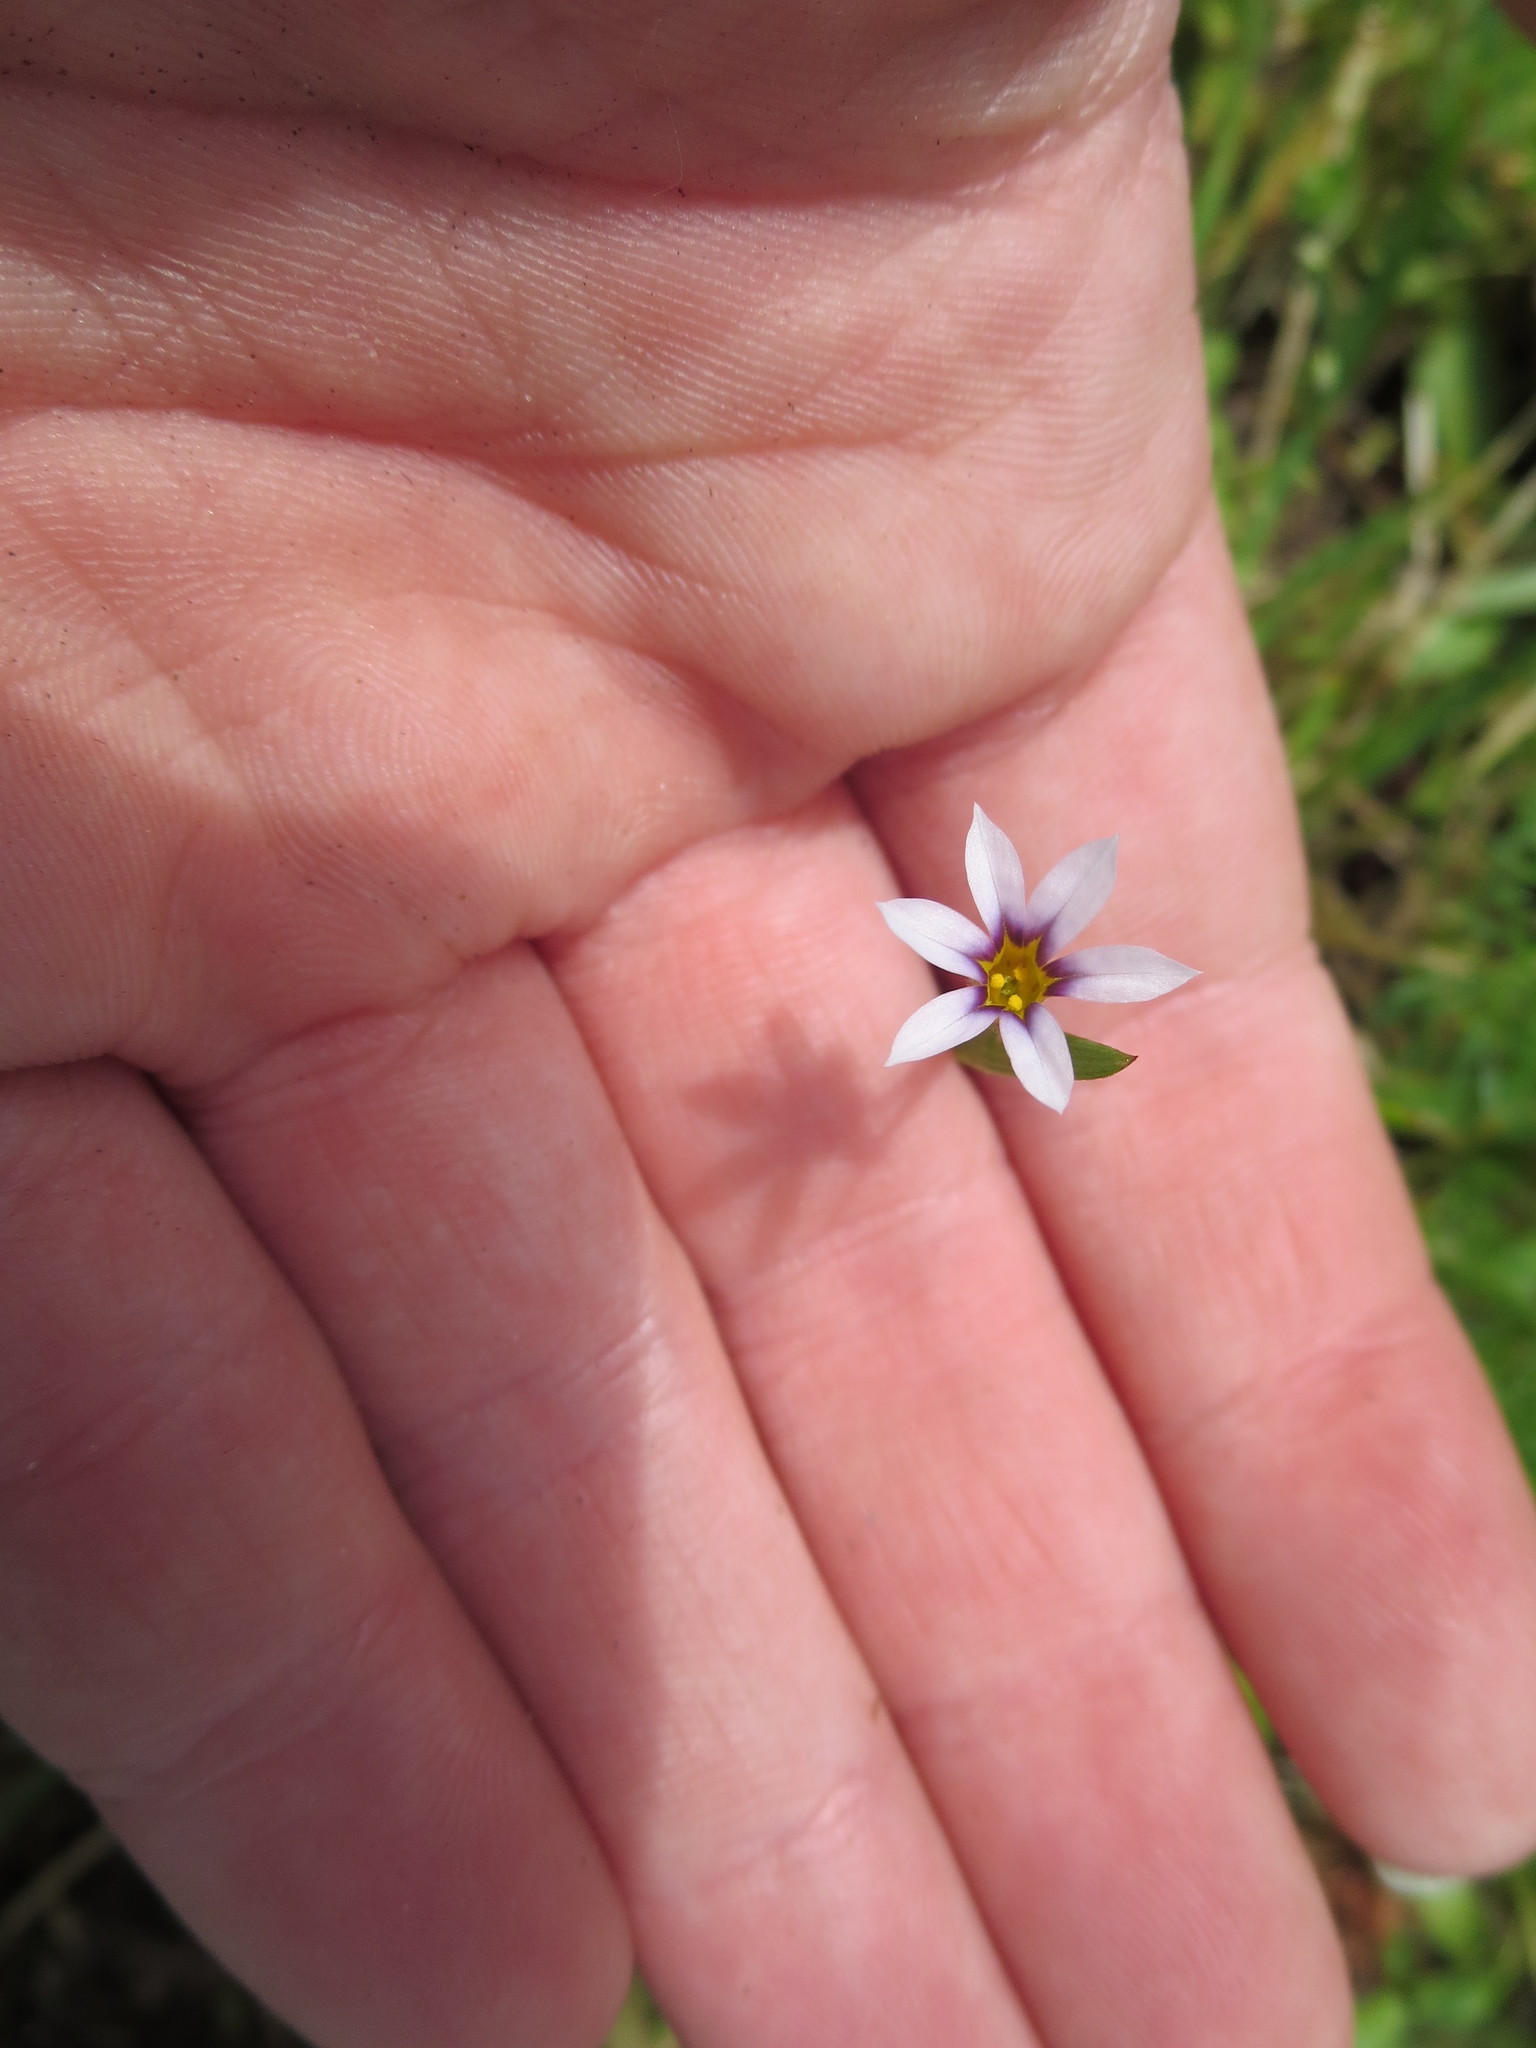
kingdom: Plantae
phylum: Tracheophyta
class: Liliopsida
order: Asparagales
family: Iridaceae
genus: Sisyrinchium
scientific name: Sisyrinchium micranthum
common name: Bermuda pigroot
